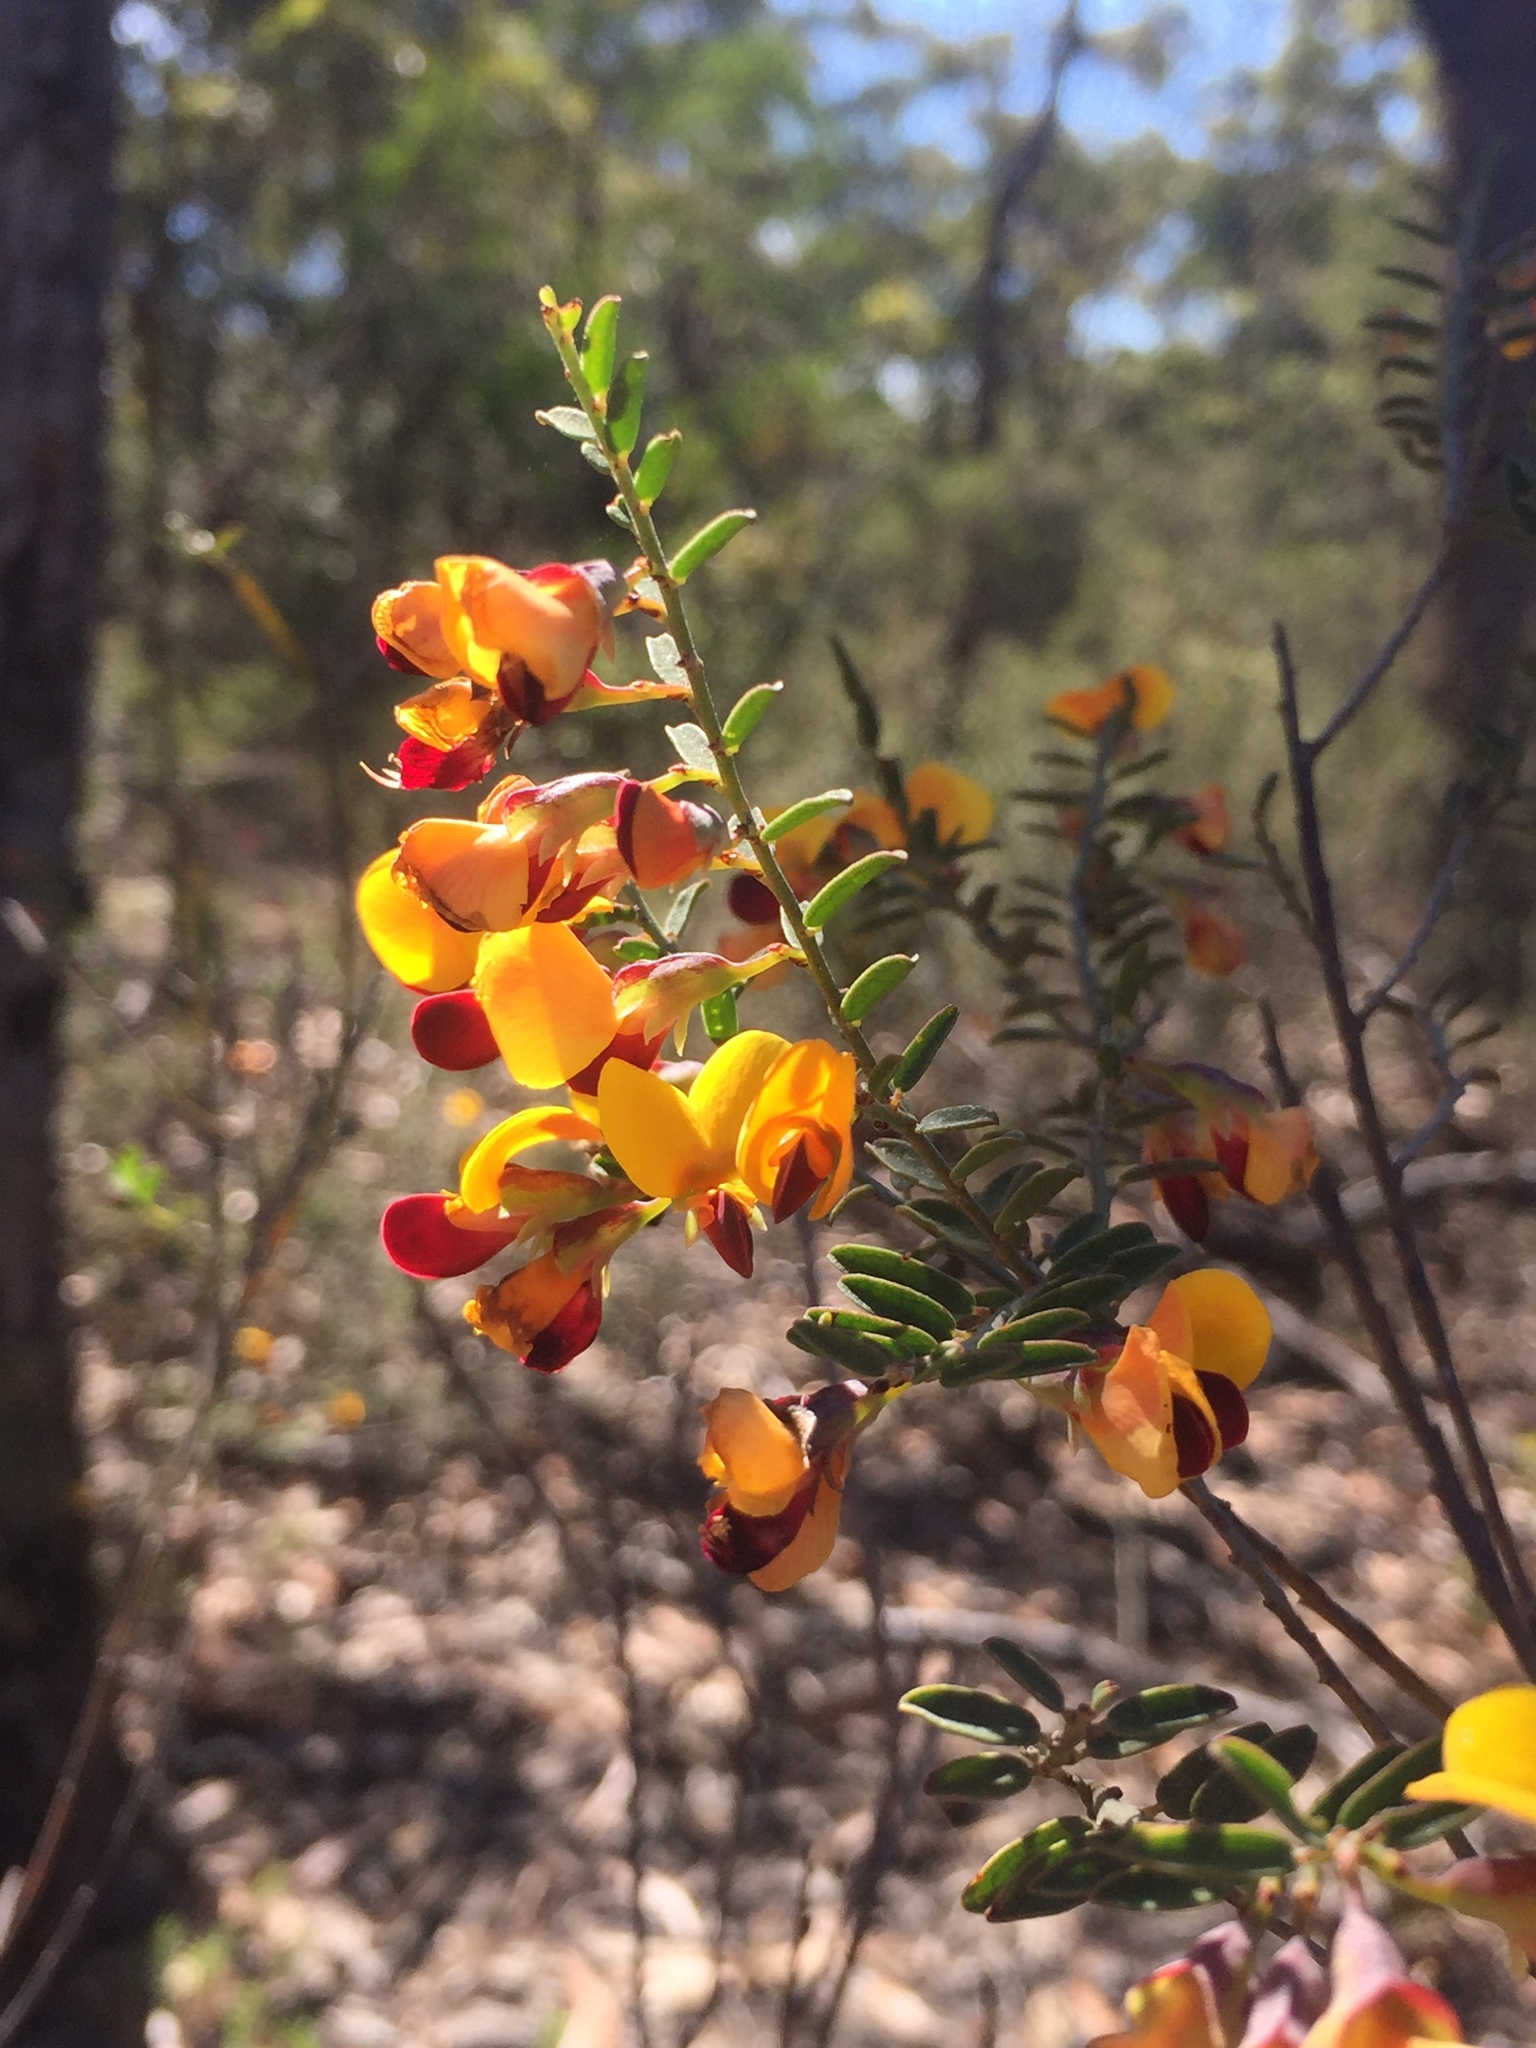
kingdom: Plantae
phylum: Tracheophyta
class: Magnoliopsida
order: Fabales
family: Fabaceae
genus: Bossiaea
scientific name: Bossiaea heterophylla
